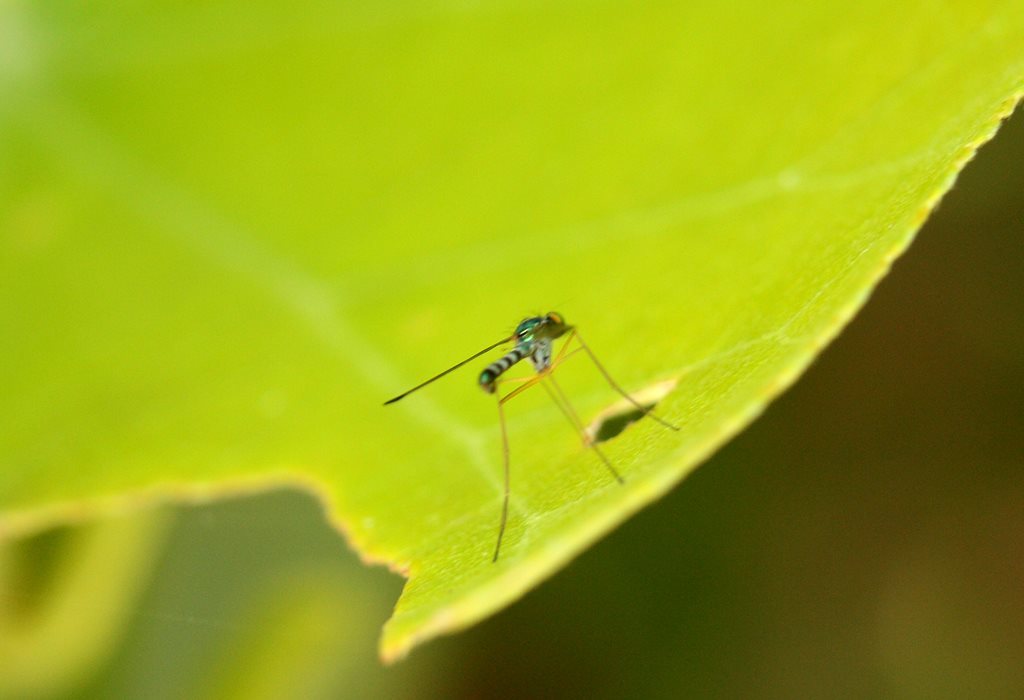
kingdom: Animalia
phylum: Arthropoda
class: Insecta
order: Diptera
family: Dolichopodidae
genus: Amblypsilopus
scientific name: Amblypsilopus zonatus
